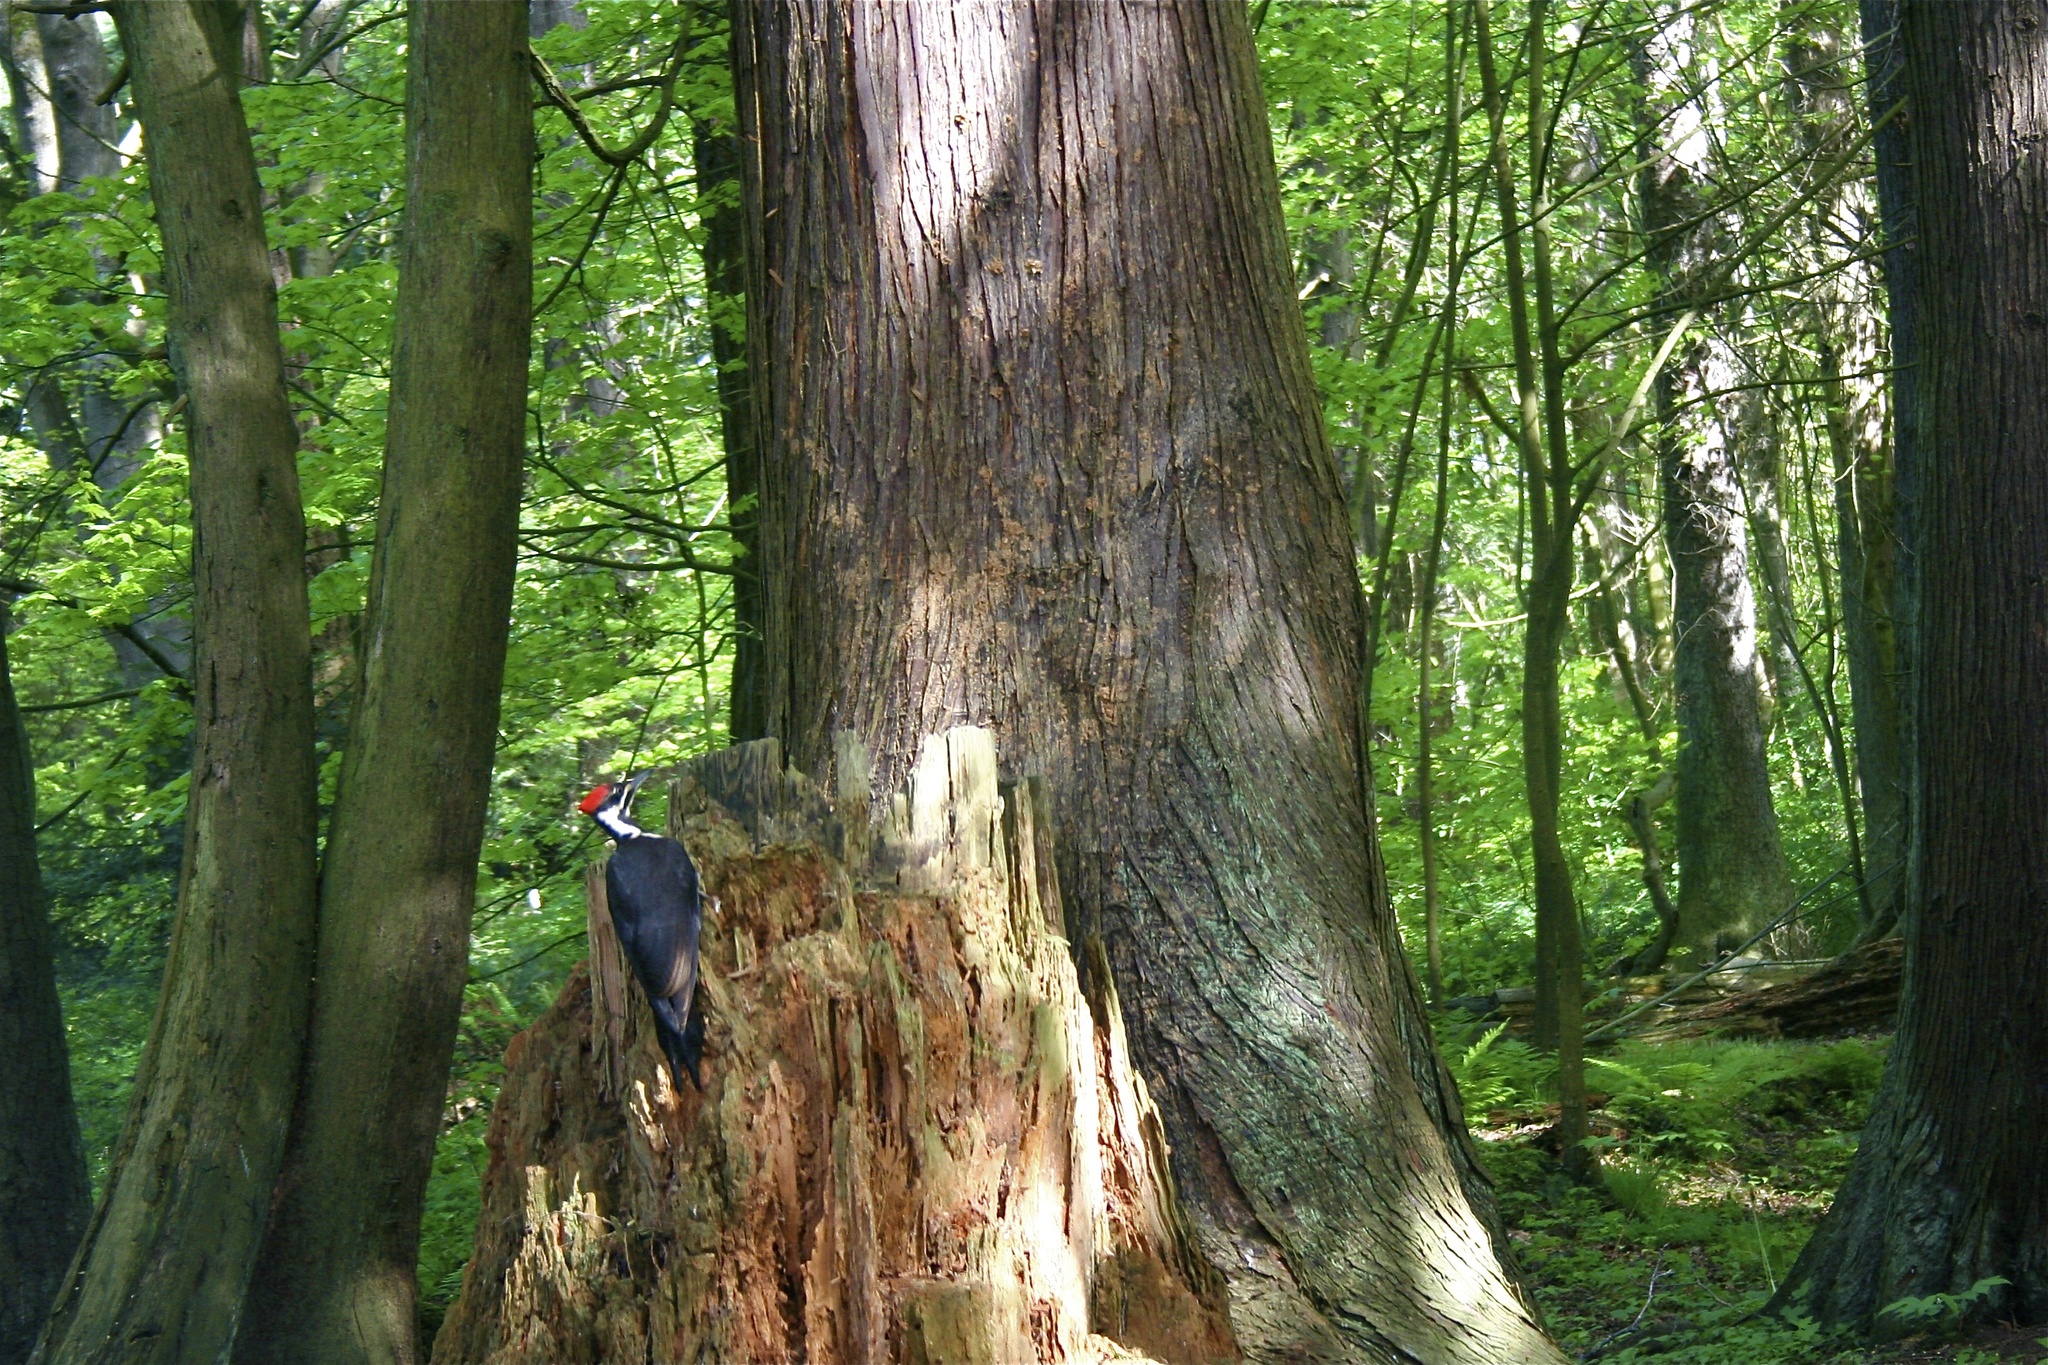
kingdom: Animalia
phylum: Chordata
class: Aves
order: Piciformes
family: Picidae
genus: Dryocopus
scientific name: Dryocopus pileatus
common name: Pileated woodpecker
